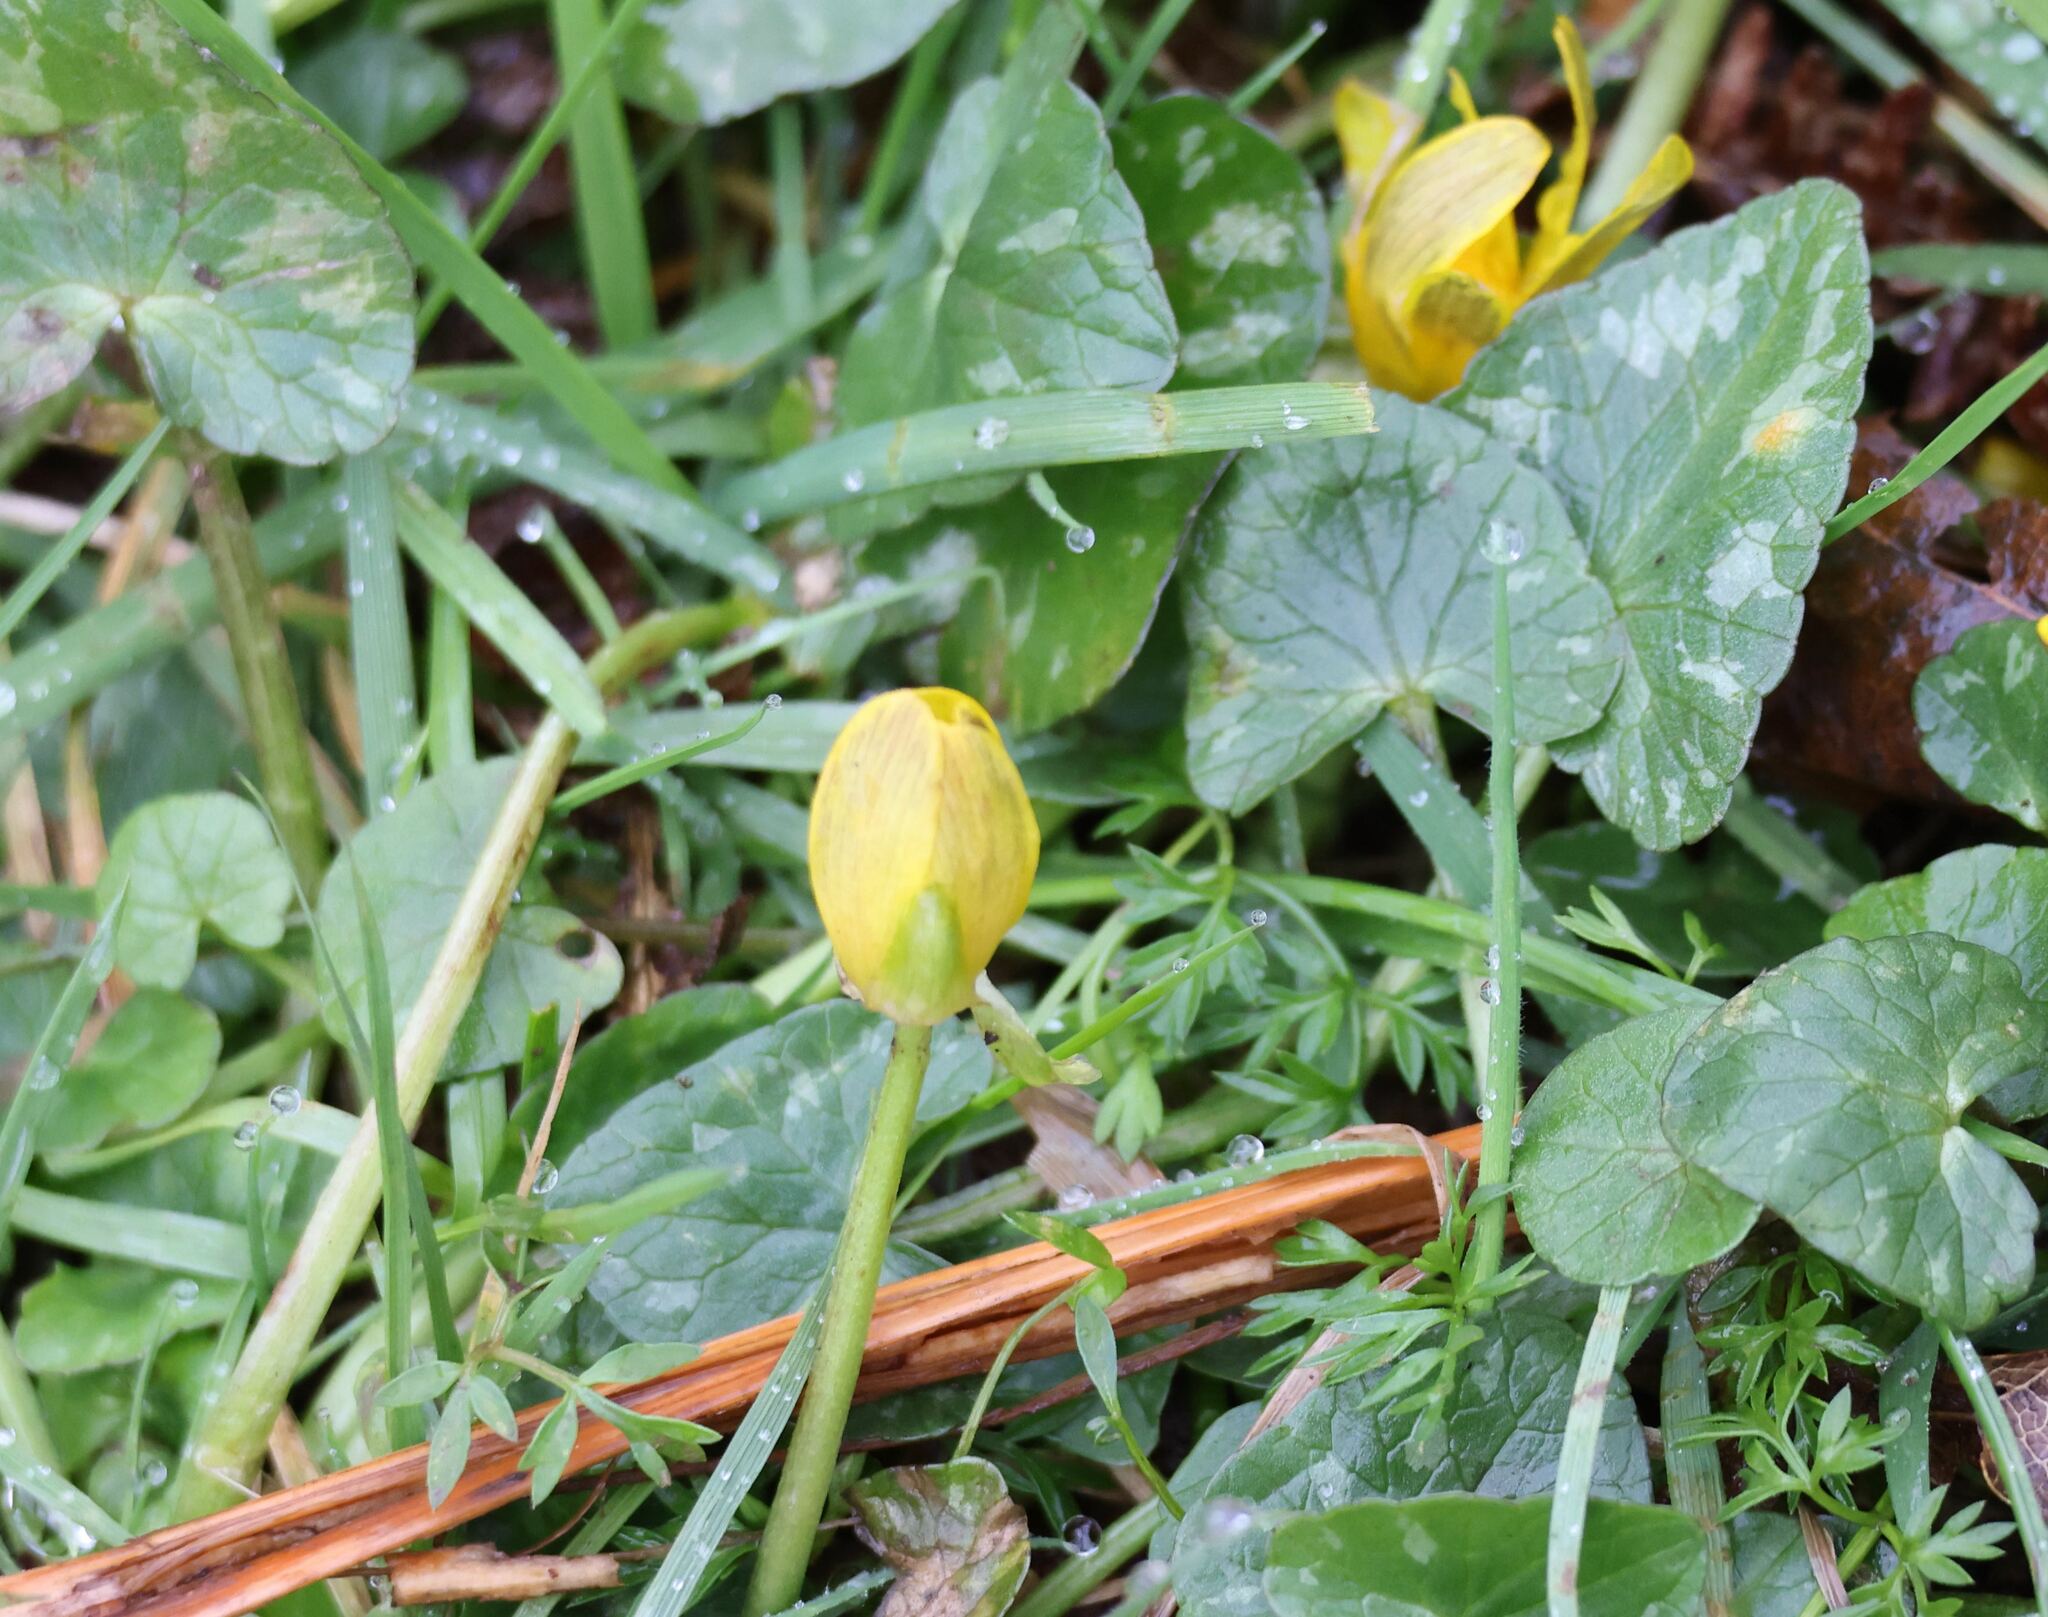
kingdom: Plantae
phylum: Tracheophyta
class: Magnoliopsida
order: Ranunculales
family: Ranunculaceae
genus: Ficaria
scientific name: Ficaria verna
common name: Lesser celandine
